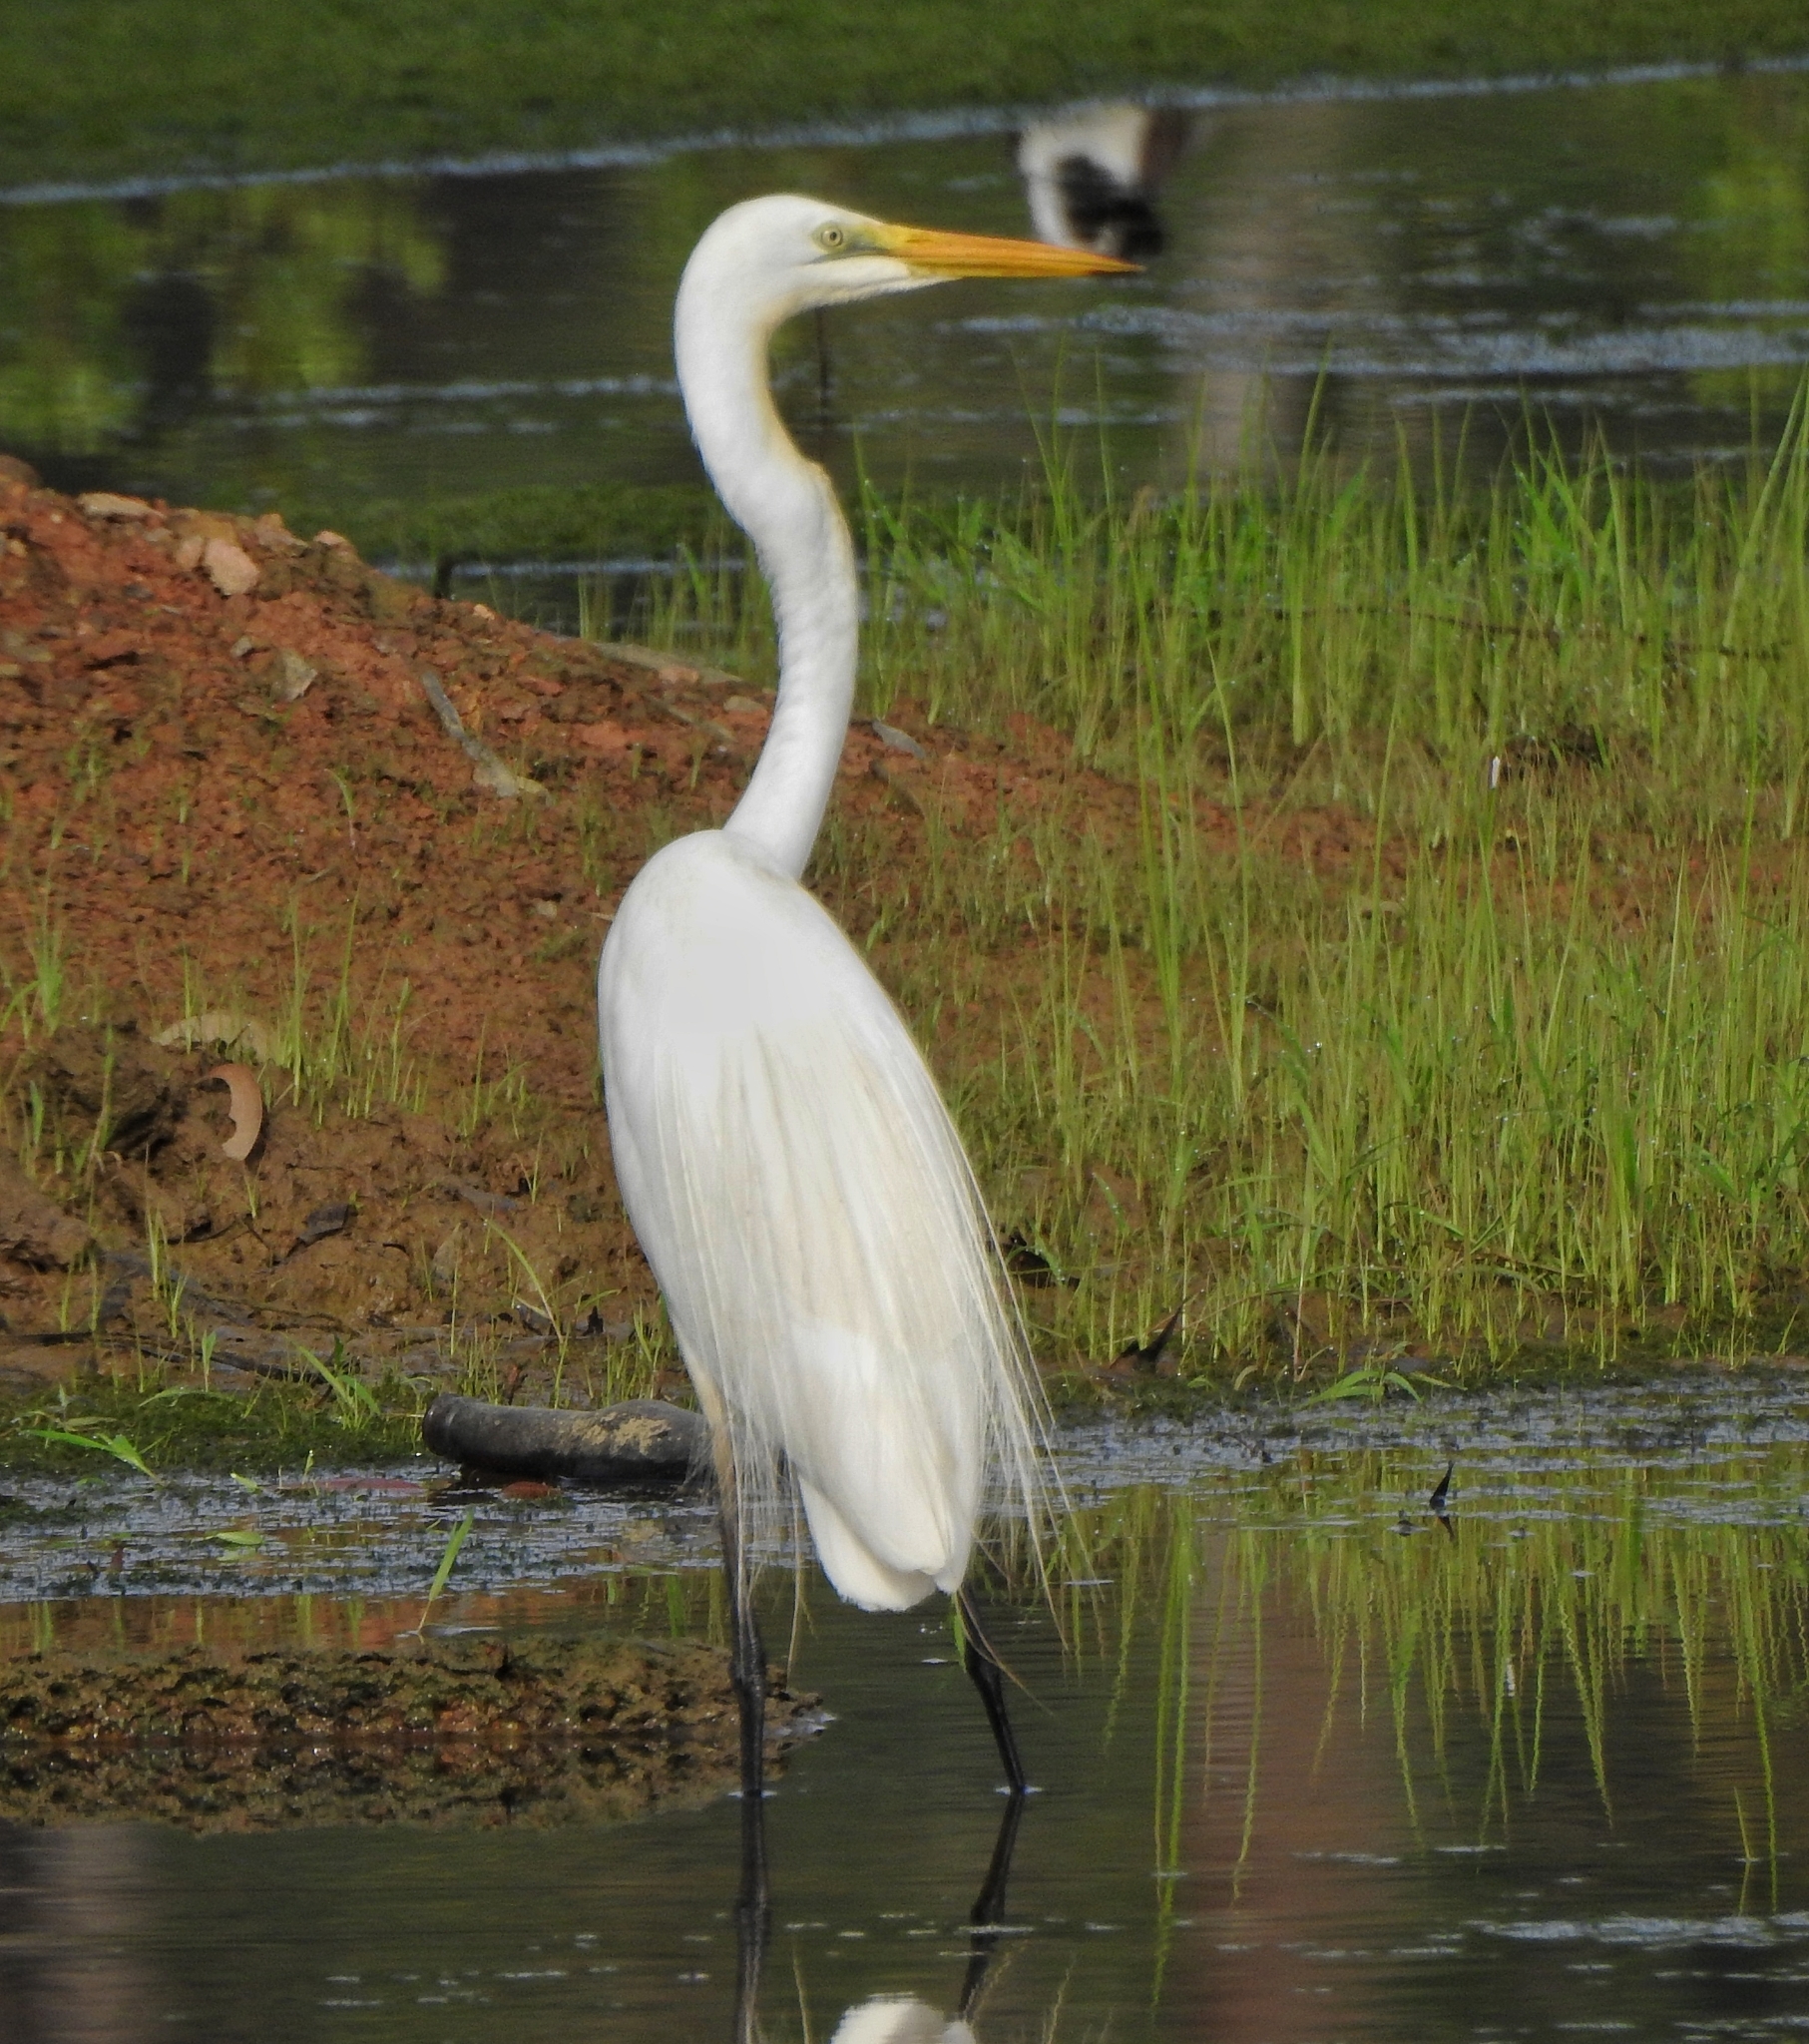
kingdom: Animalia
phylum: Chordata
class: Aves
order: Pelecaniformes
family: Ardeidae
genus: Ardea
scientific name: Ardea alba
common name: Great egret
